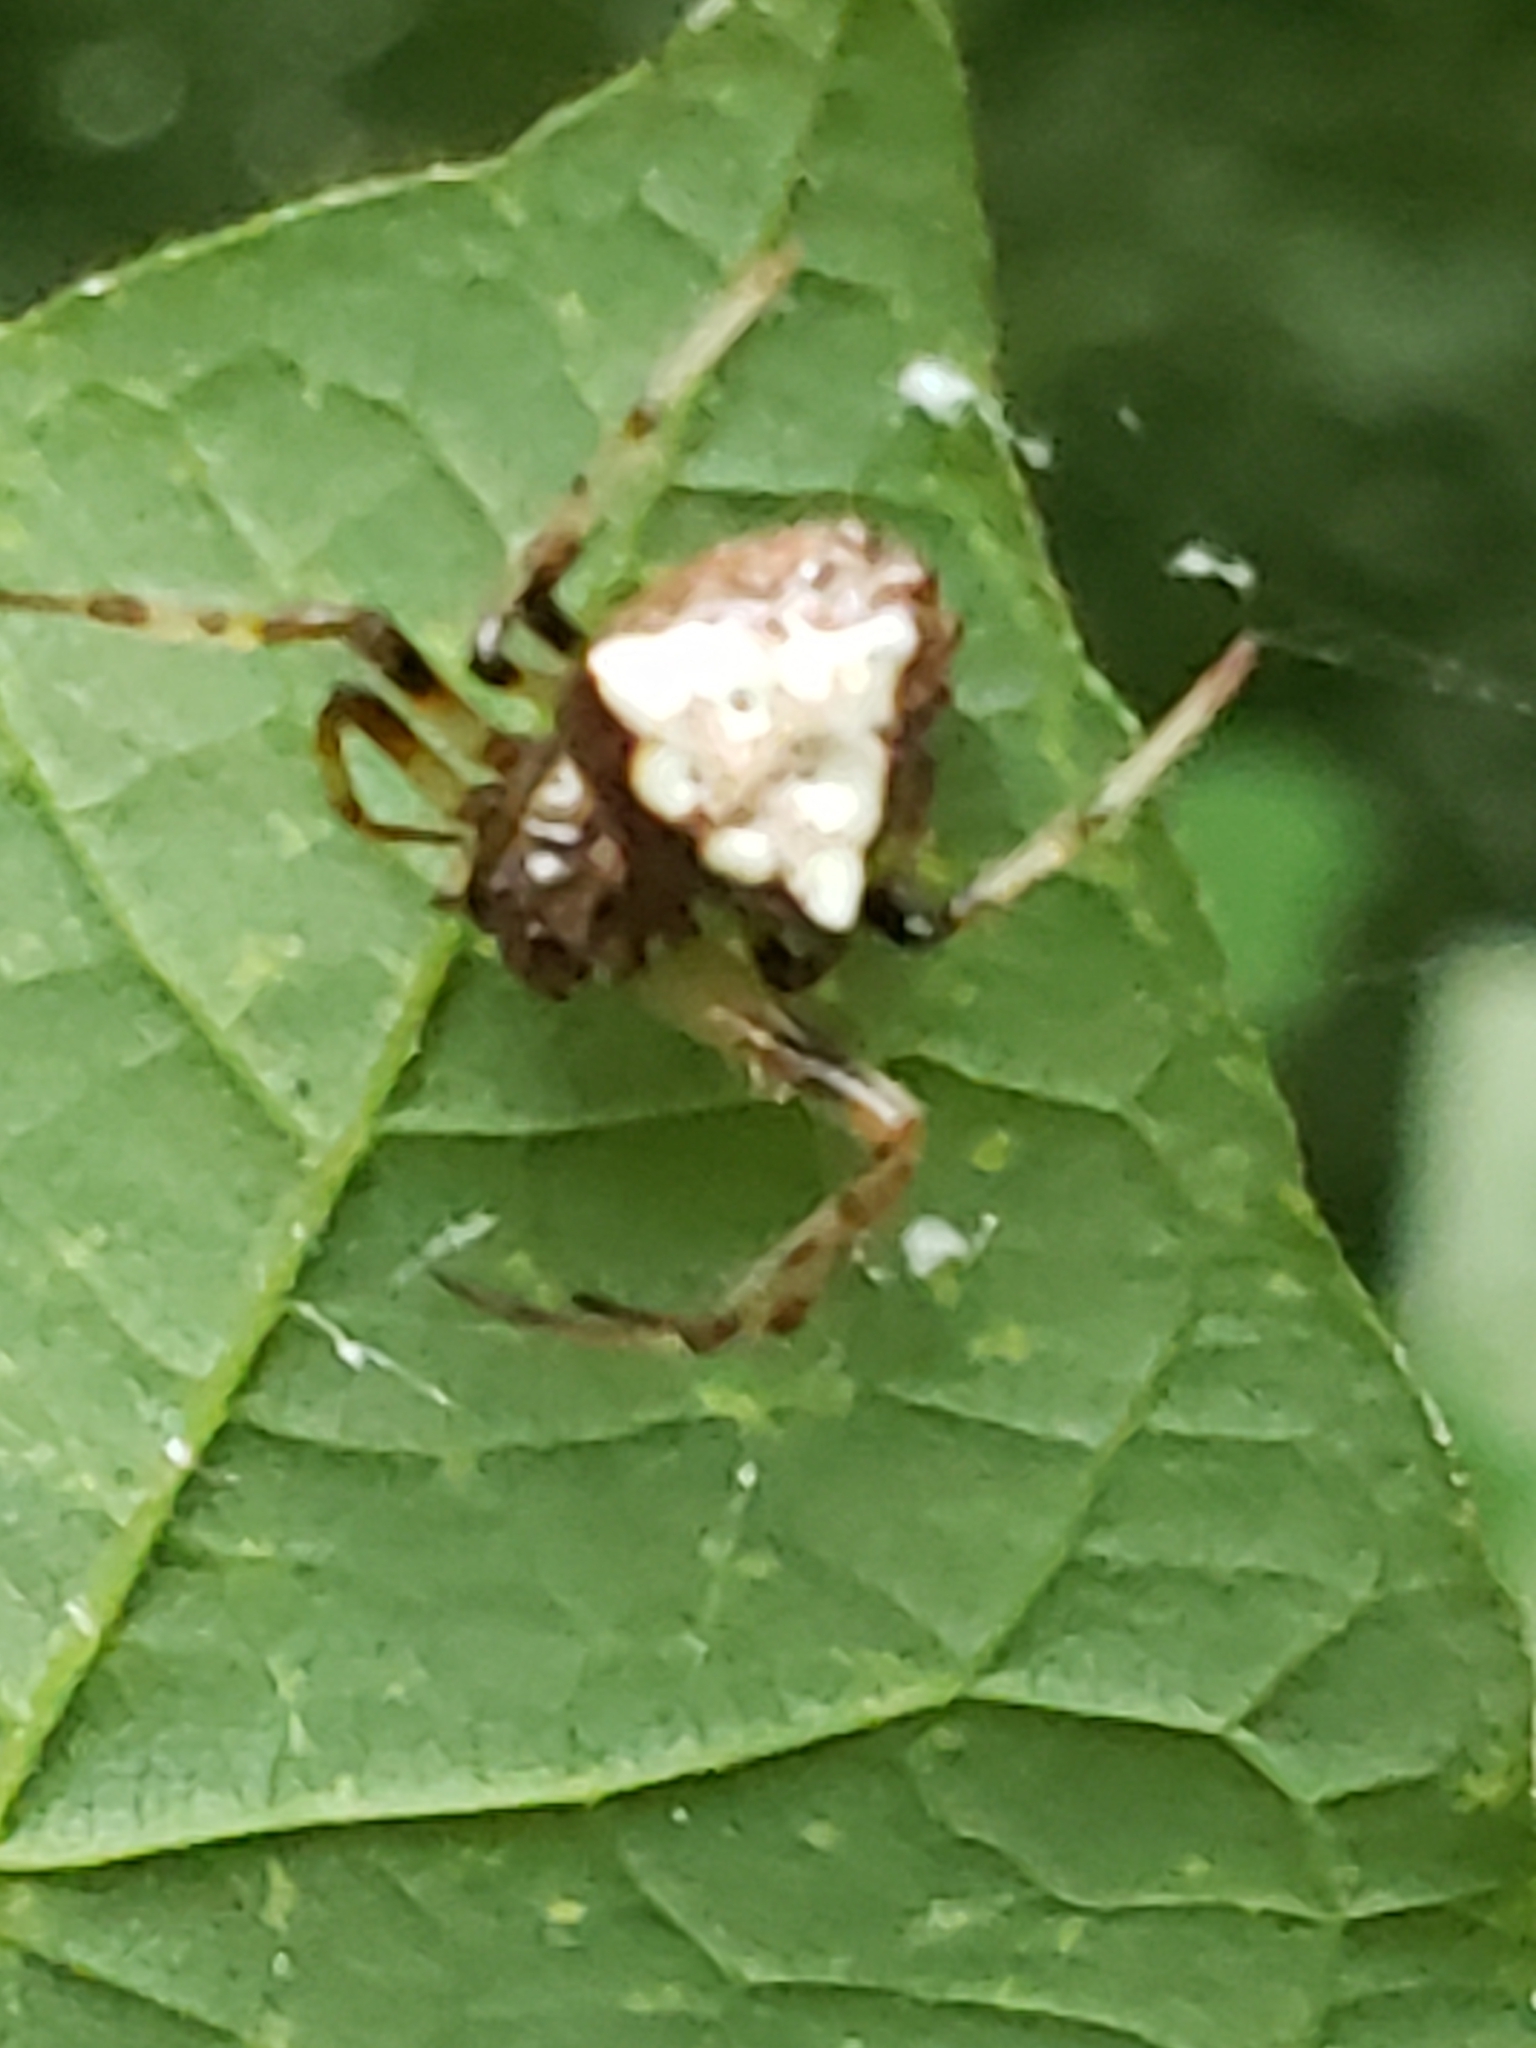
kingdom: Animalia
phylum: Arthropoda
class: Arachnida
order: Araneae
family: Araneidae
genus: Verrucosa
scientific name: Verrucosa arenata
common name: Orb weavers
